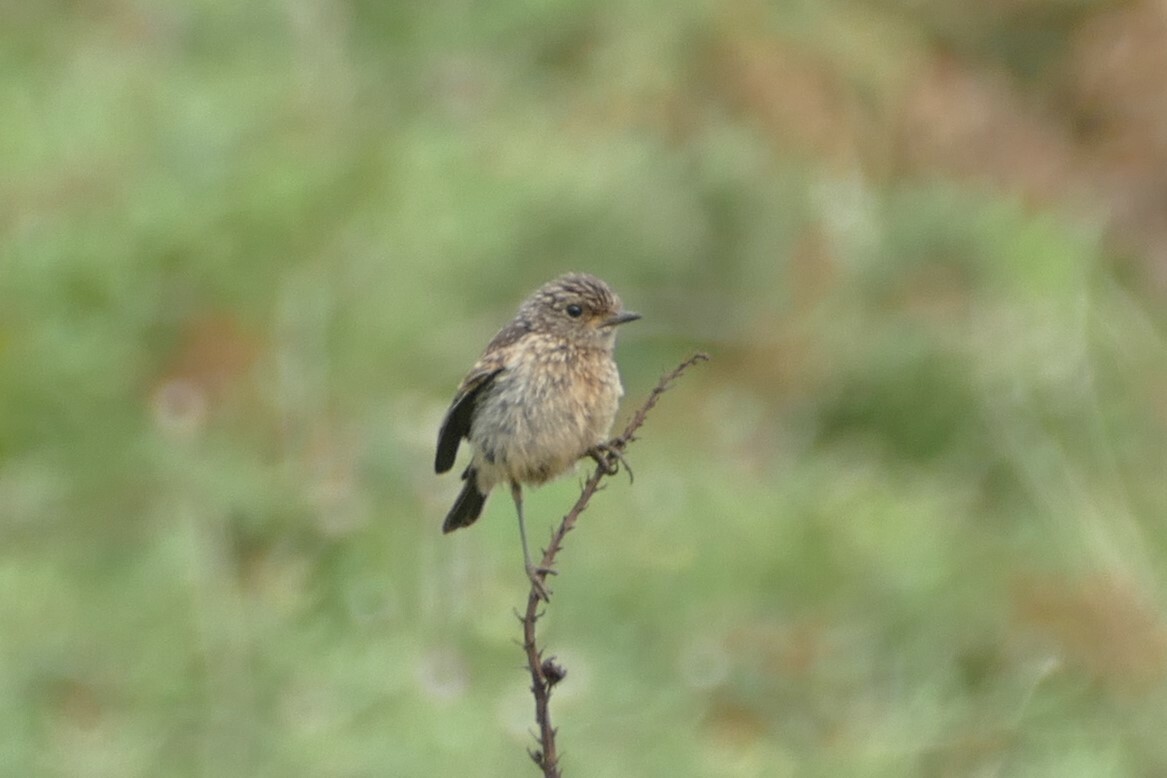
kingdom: Animalia
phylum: Chordata
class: Aves
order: Passeriformes
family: Muscicapidae
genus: Saxicola
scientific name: Saxicola rubicola
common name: European stonechat
